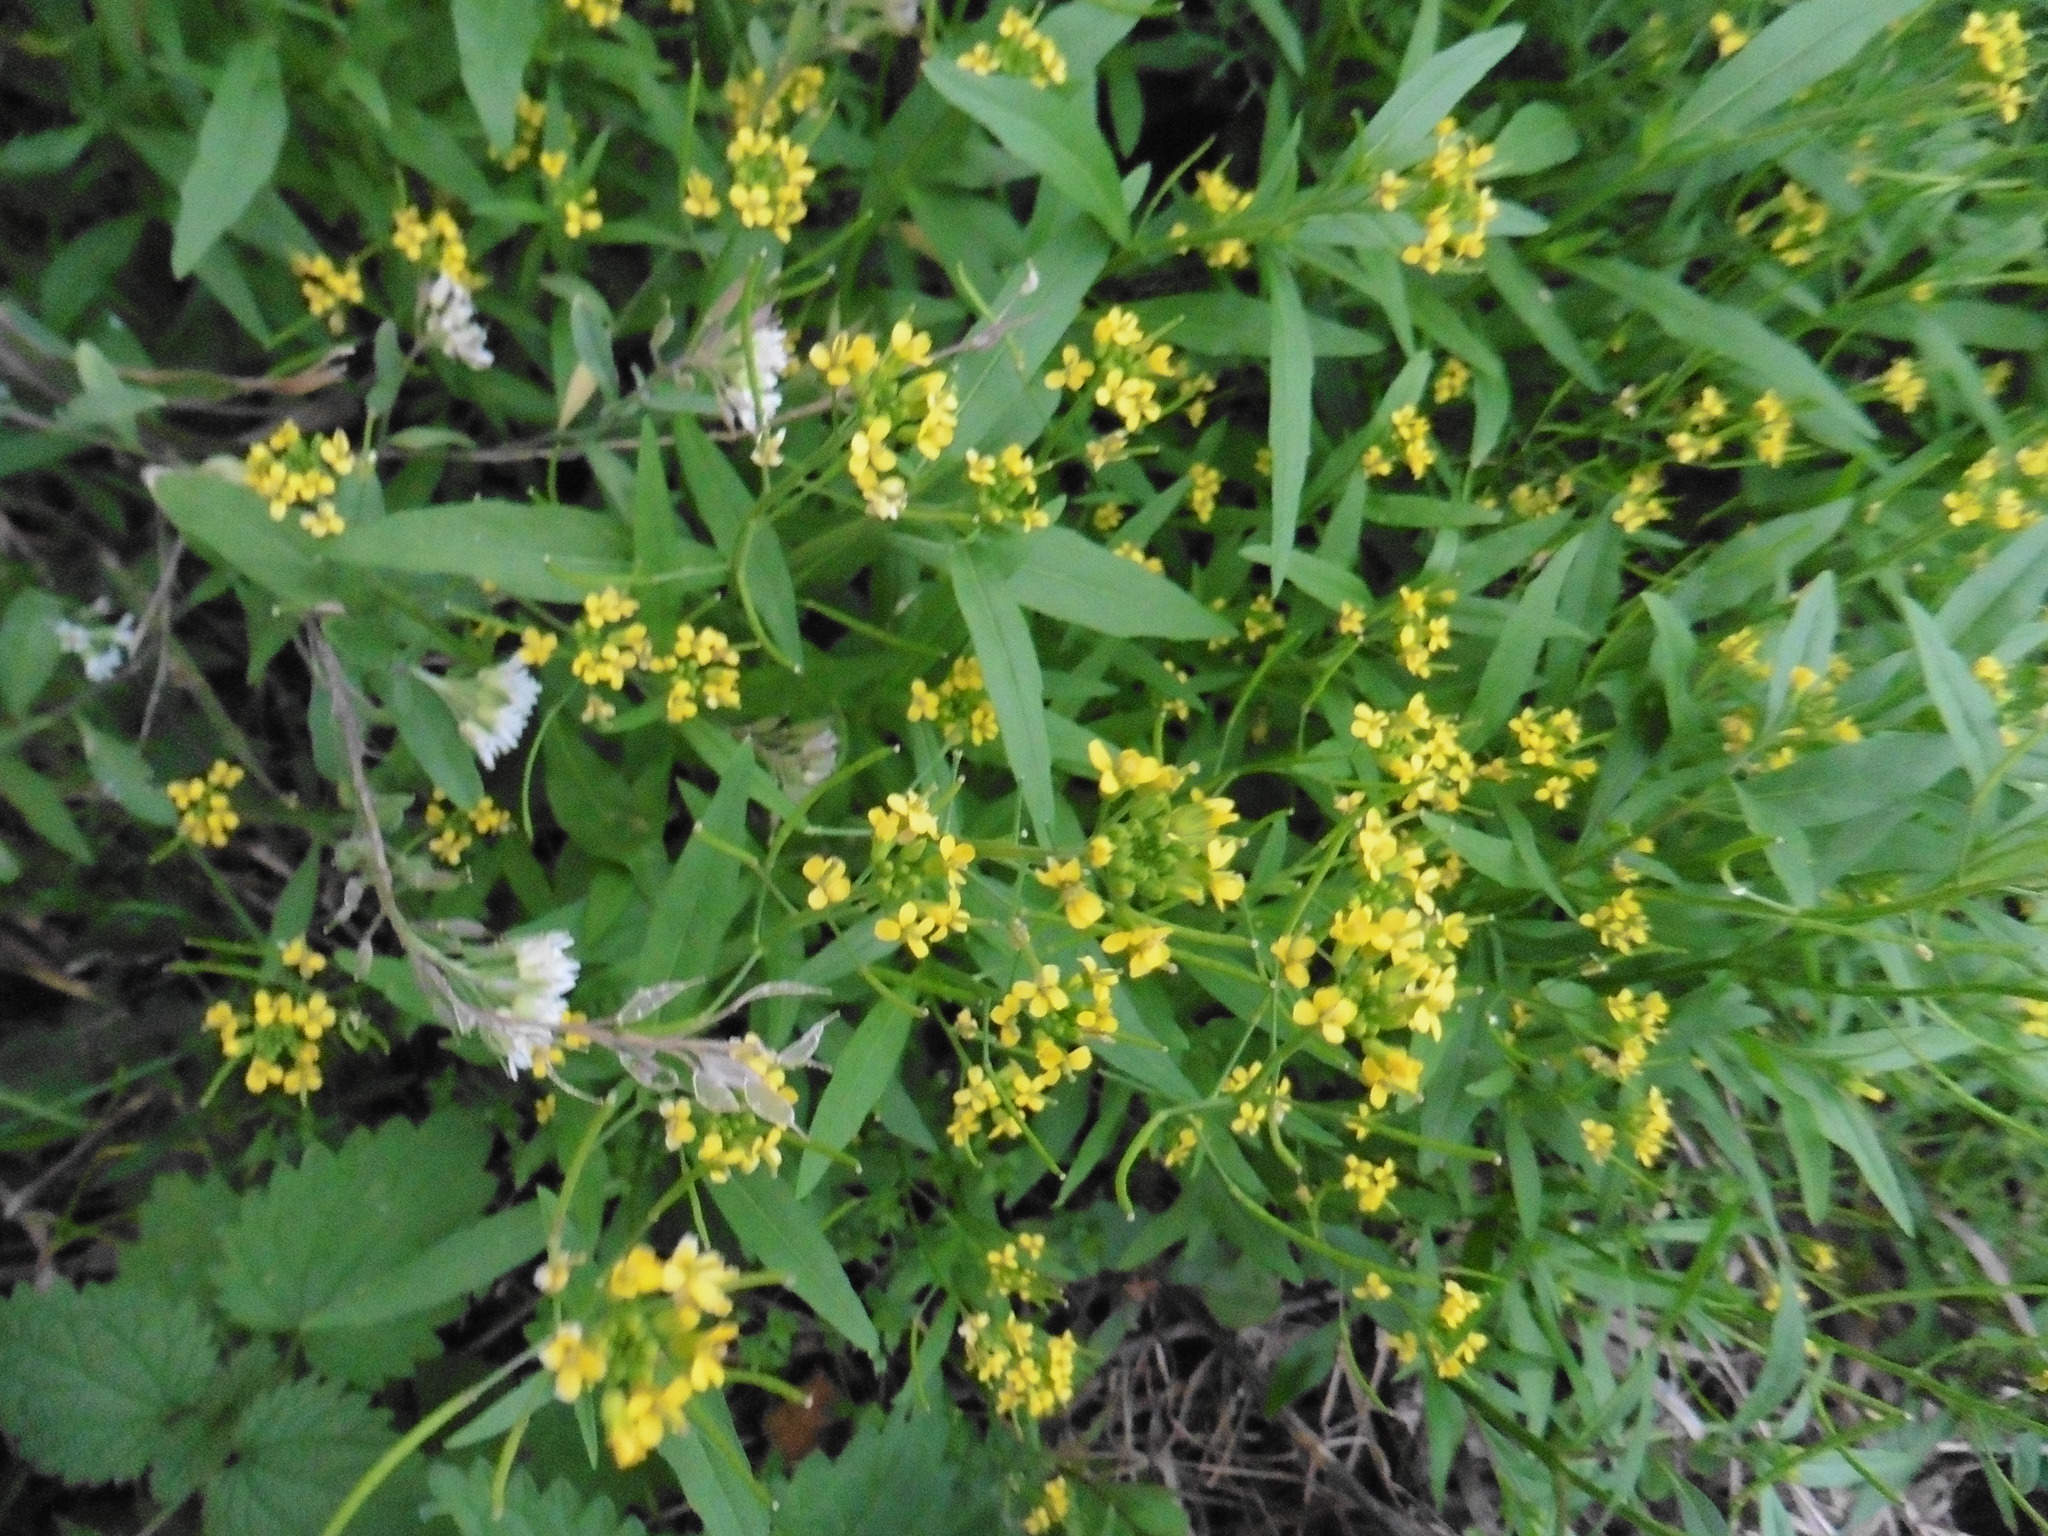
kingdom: Plantae
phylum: Tracheophyta
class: Magnoliopsida
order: Brassicales
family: Brassicaceae
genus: Erysimum
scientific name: Erysimum cheiranthoides
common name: Treacle mustard
